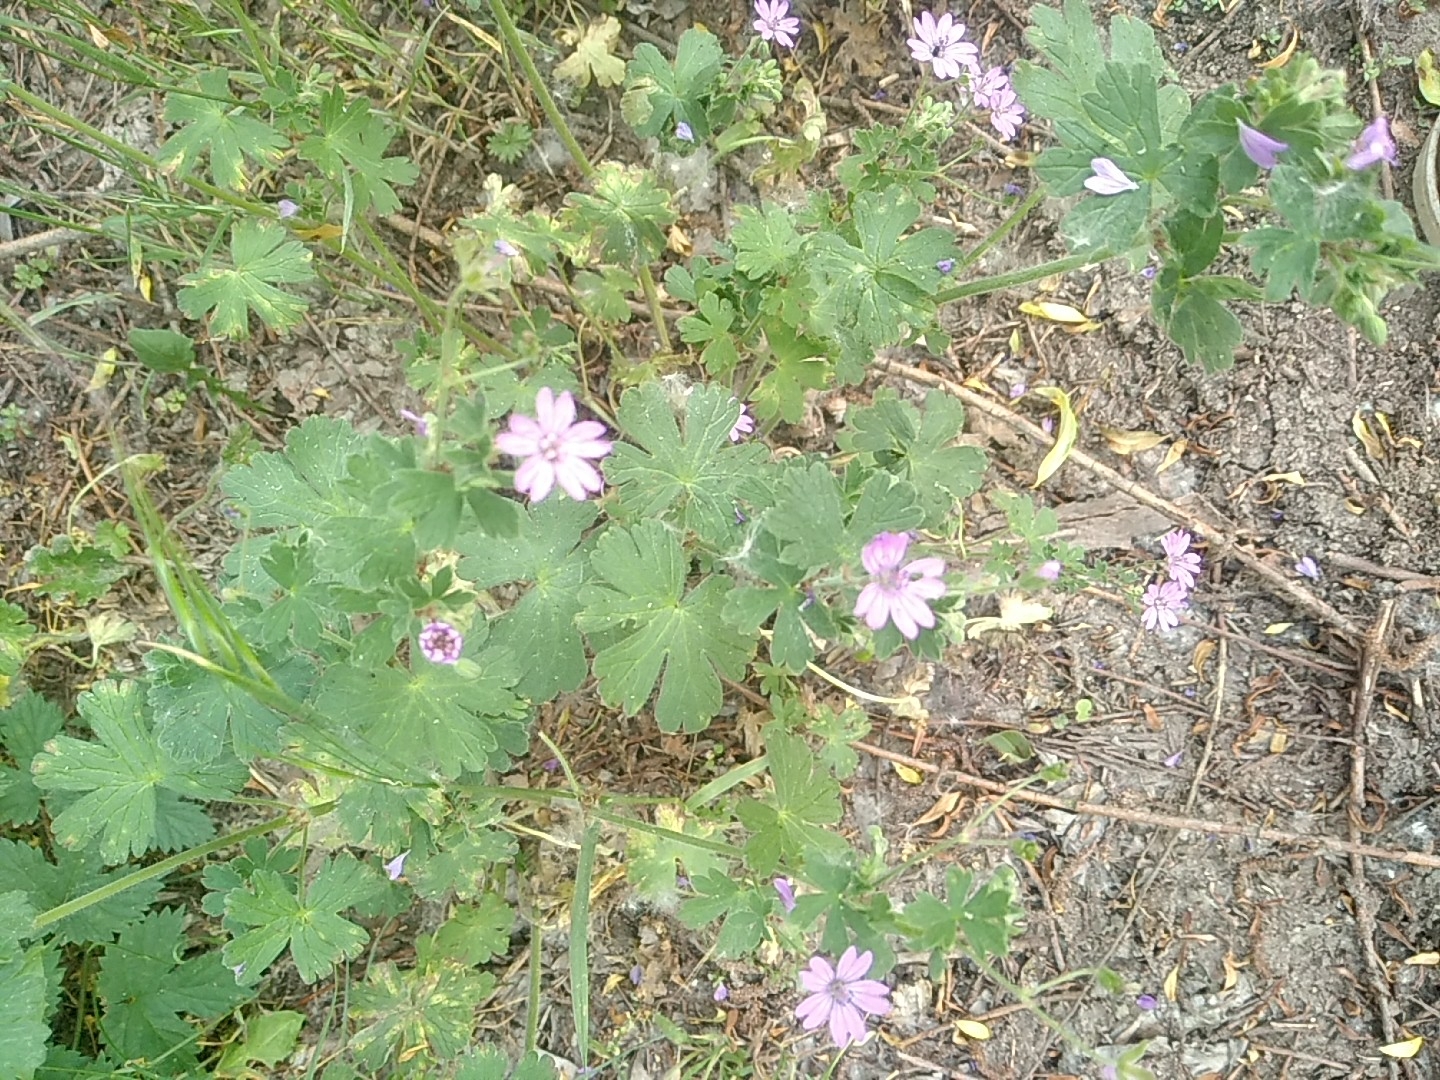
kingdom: Plantae
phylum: Tracheophyta
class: Magnoliopsida
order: Geraniales
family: Geraniaceae
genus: Geranium
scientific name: Geranium pyrenaicum
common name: Hedgerow crane's-bill
